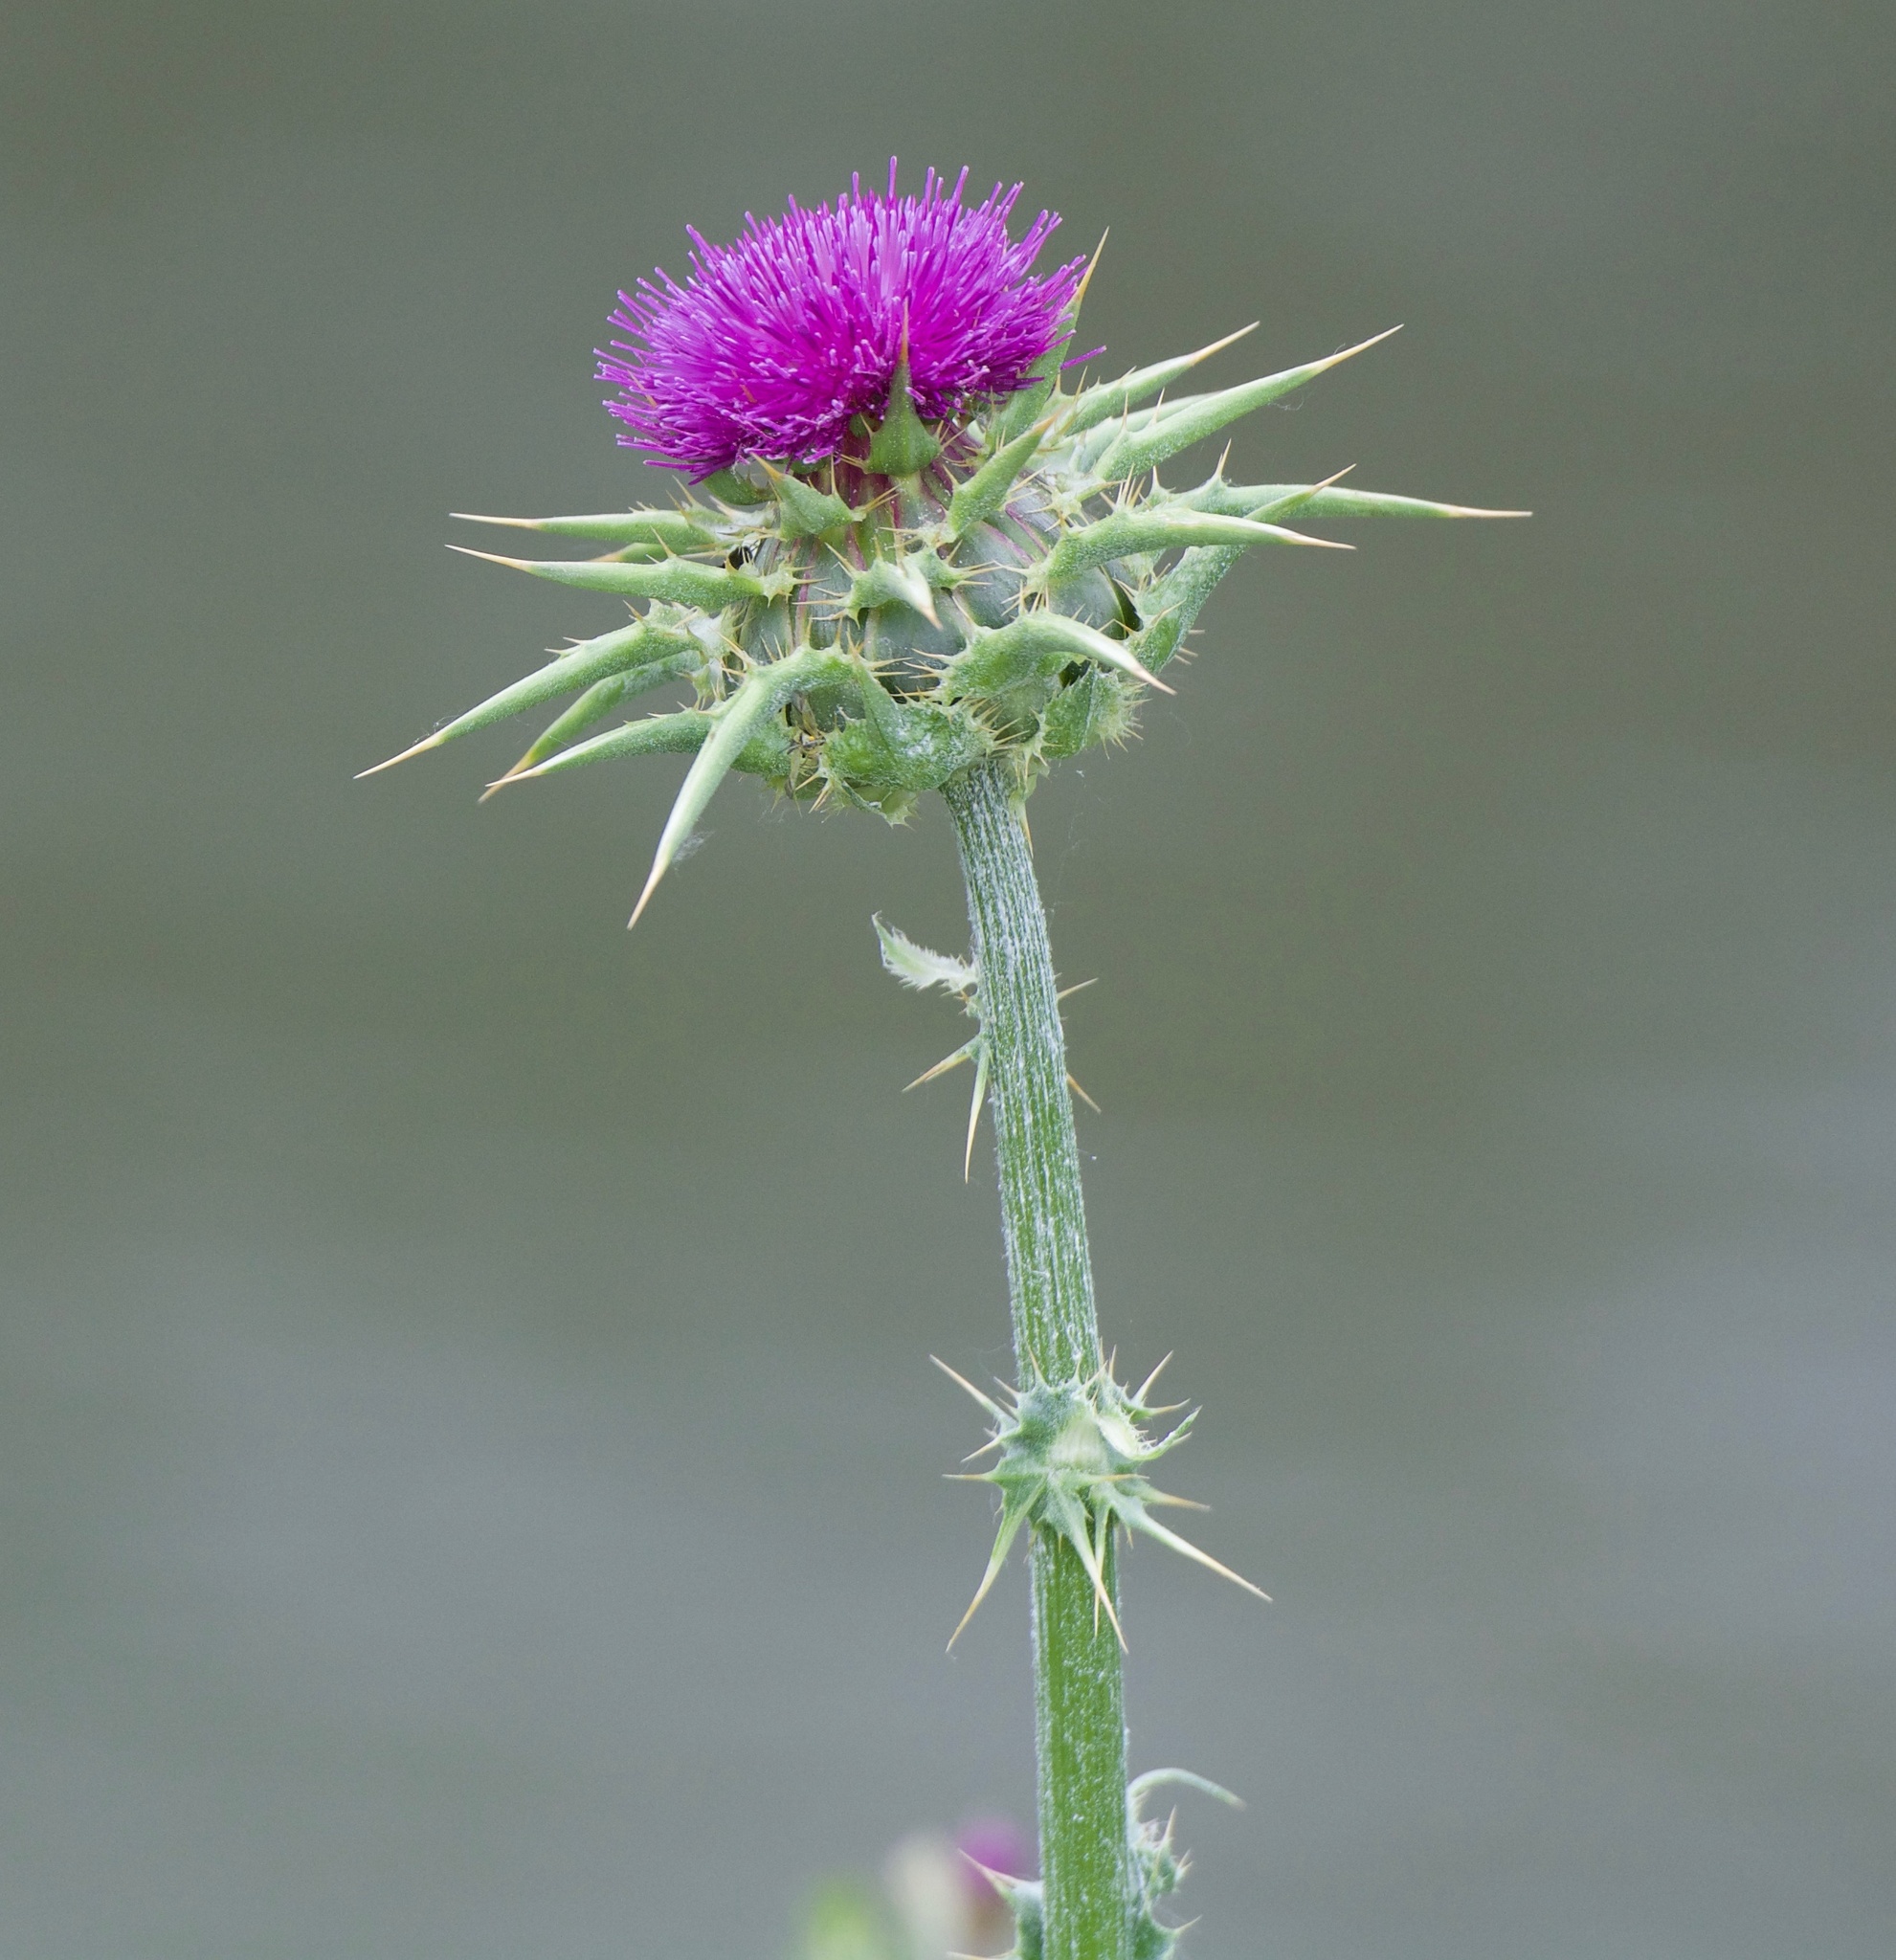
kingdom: Plantae
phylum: Tracheophyta
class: Magnoliopsida
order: Asterales
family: Asteraceae
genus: Silybum
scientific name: Silybum marianum
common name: Milk thistle
